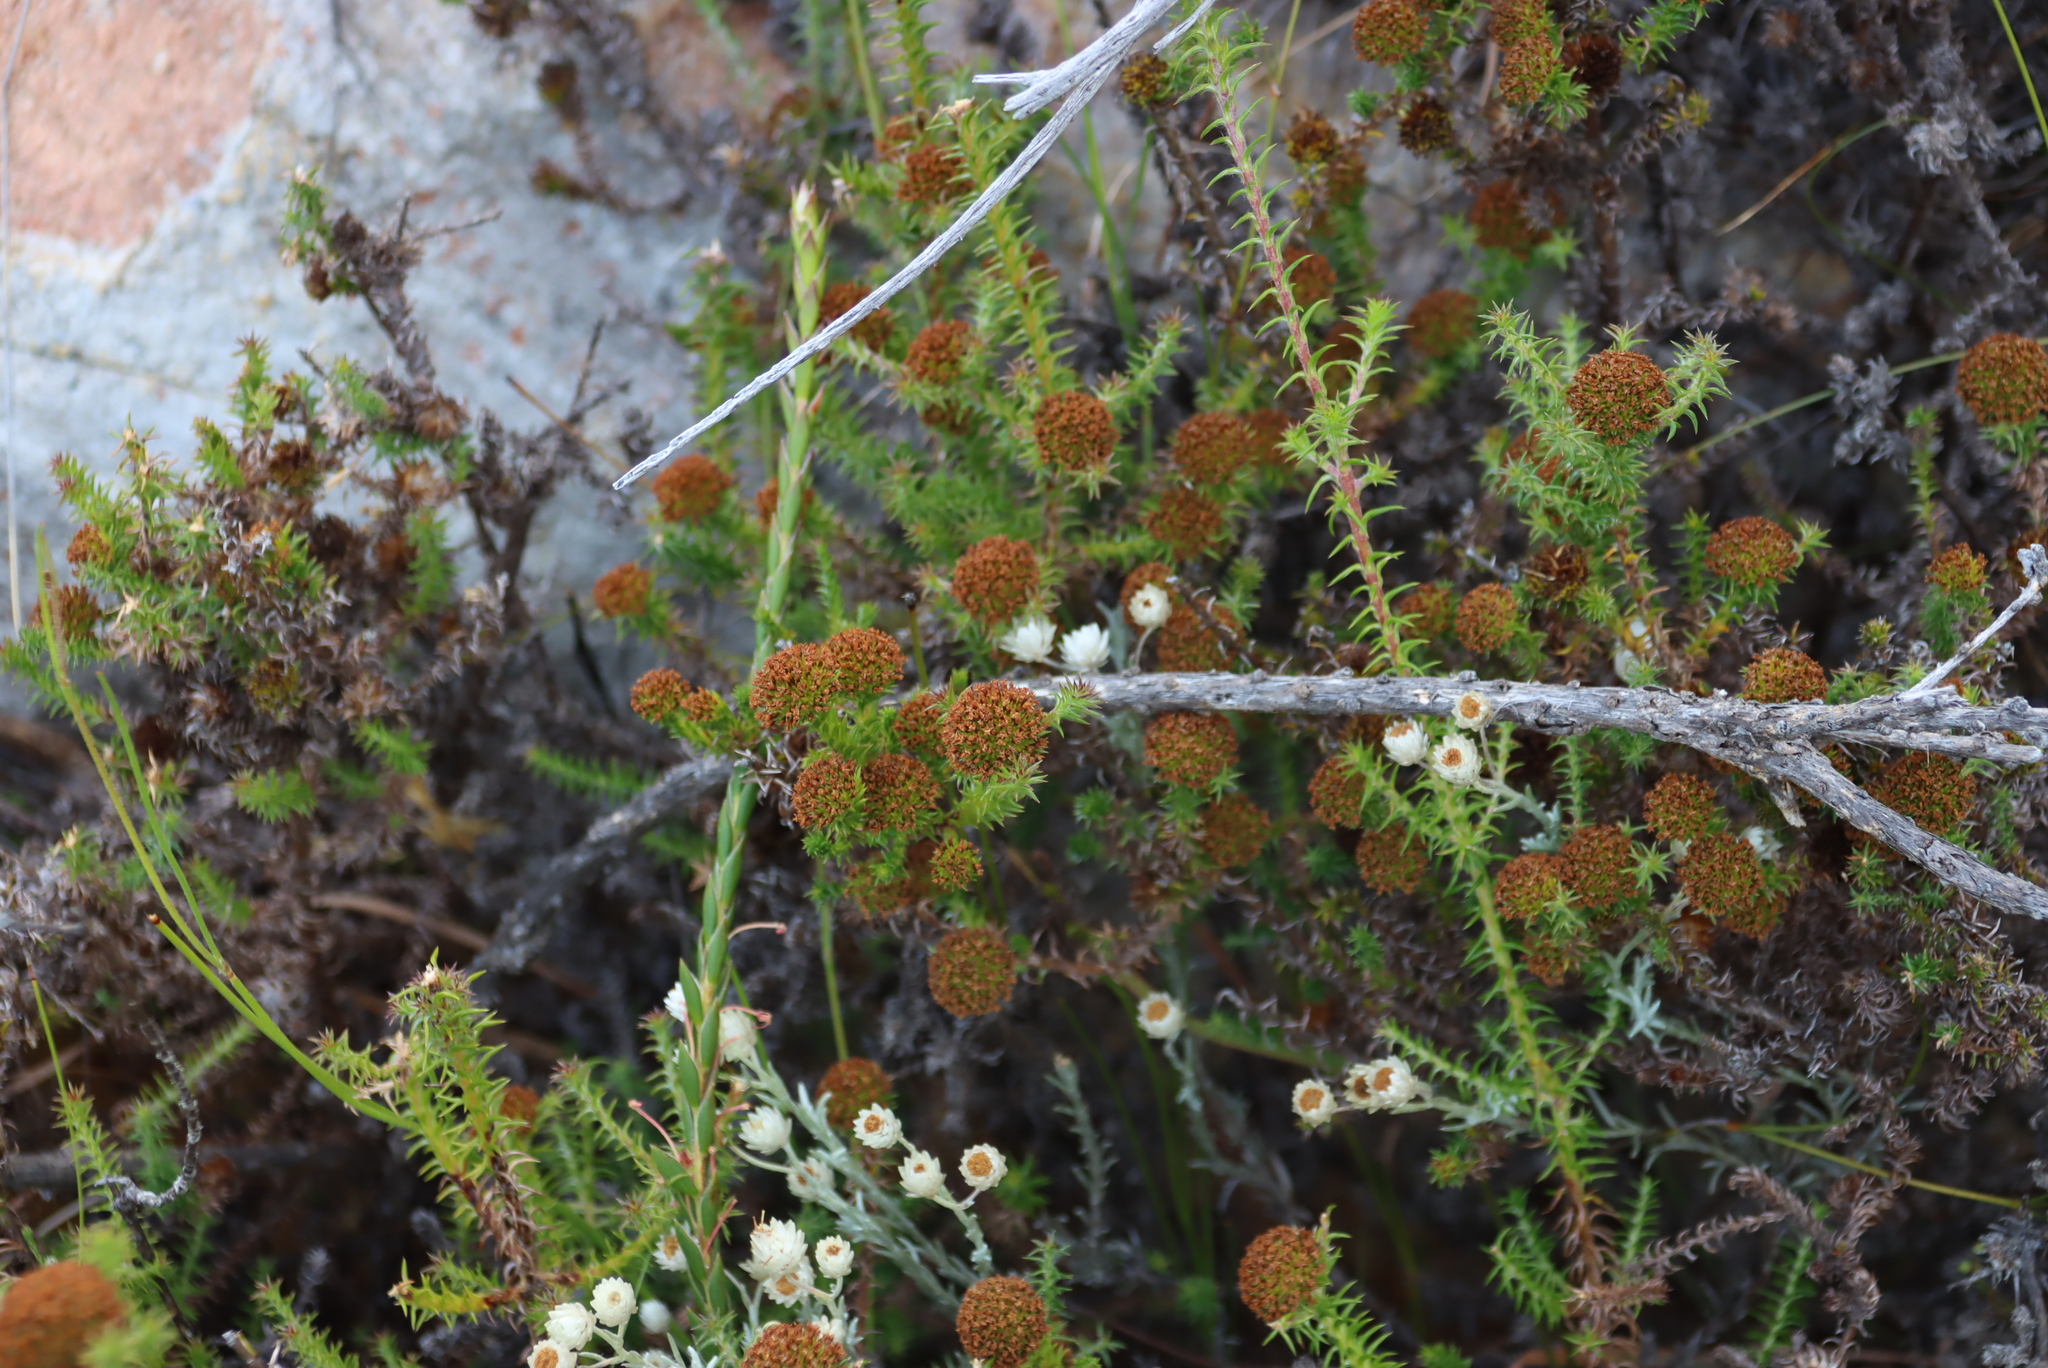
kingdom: Plantae
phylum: Tracheophyta
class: Magnoliopsida
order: Asterales
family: Asteraceae
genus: Stoebe
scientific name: Stoebe aethiopica
